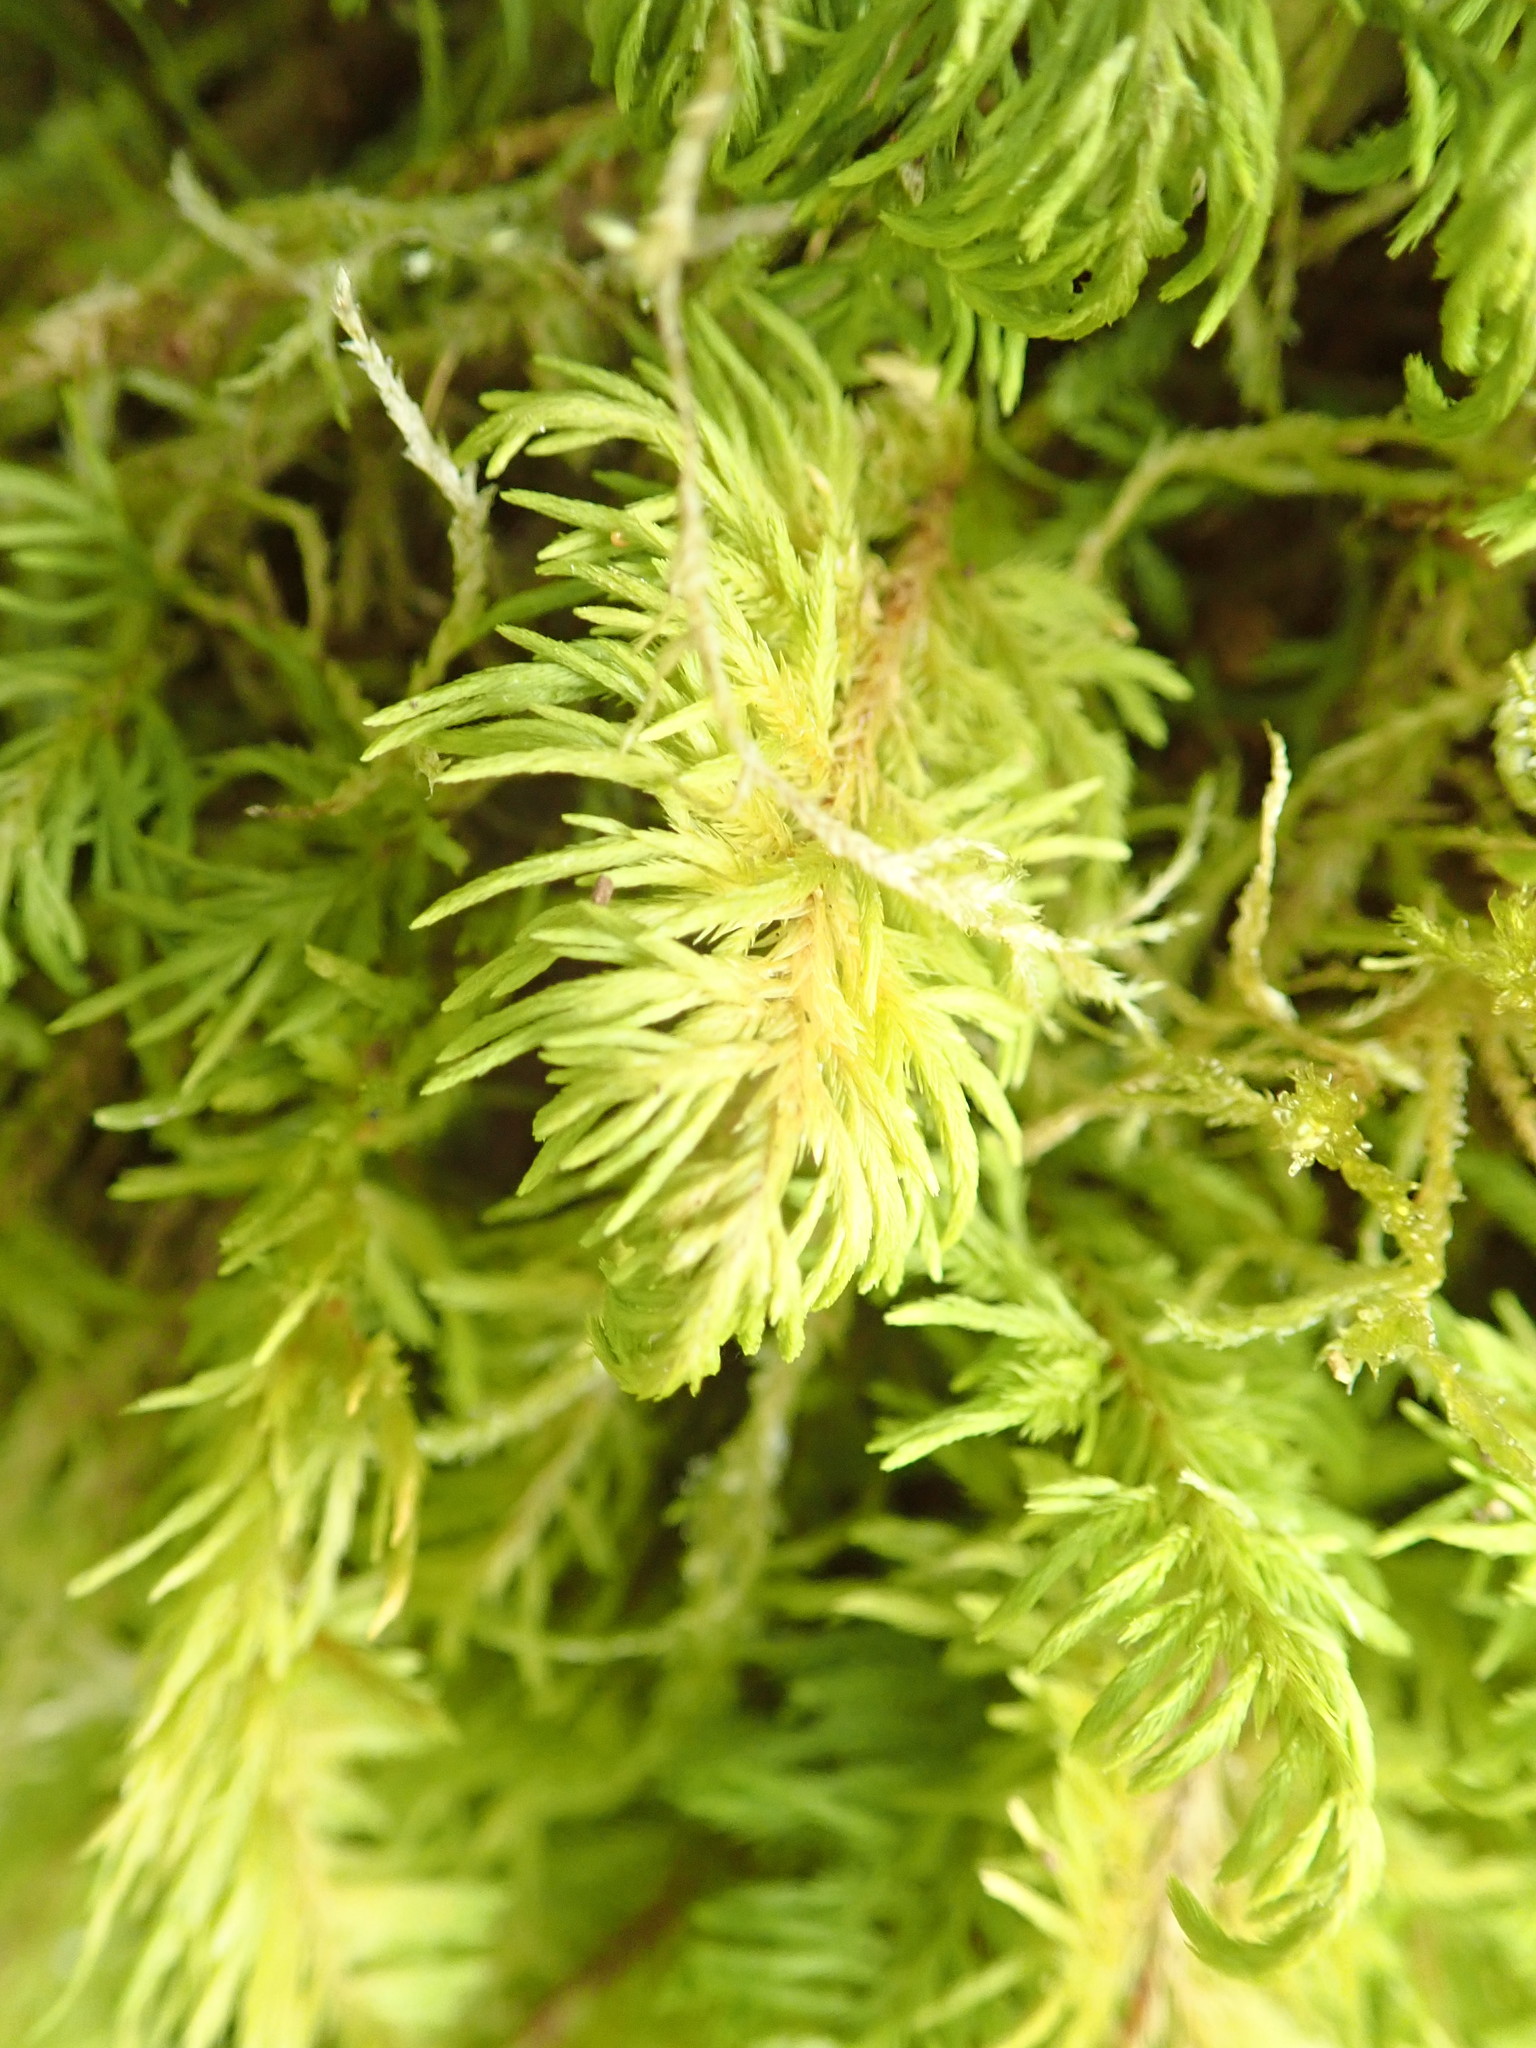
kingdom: Plantae
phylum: Bryophyta
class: Bryopsida
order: Hypnales
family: Cryphaeaceae
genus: Dendroalsia
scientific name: Dendroalsia abietina
